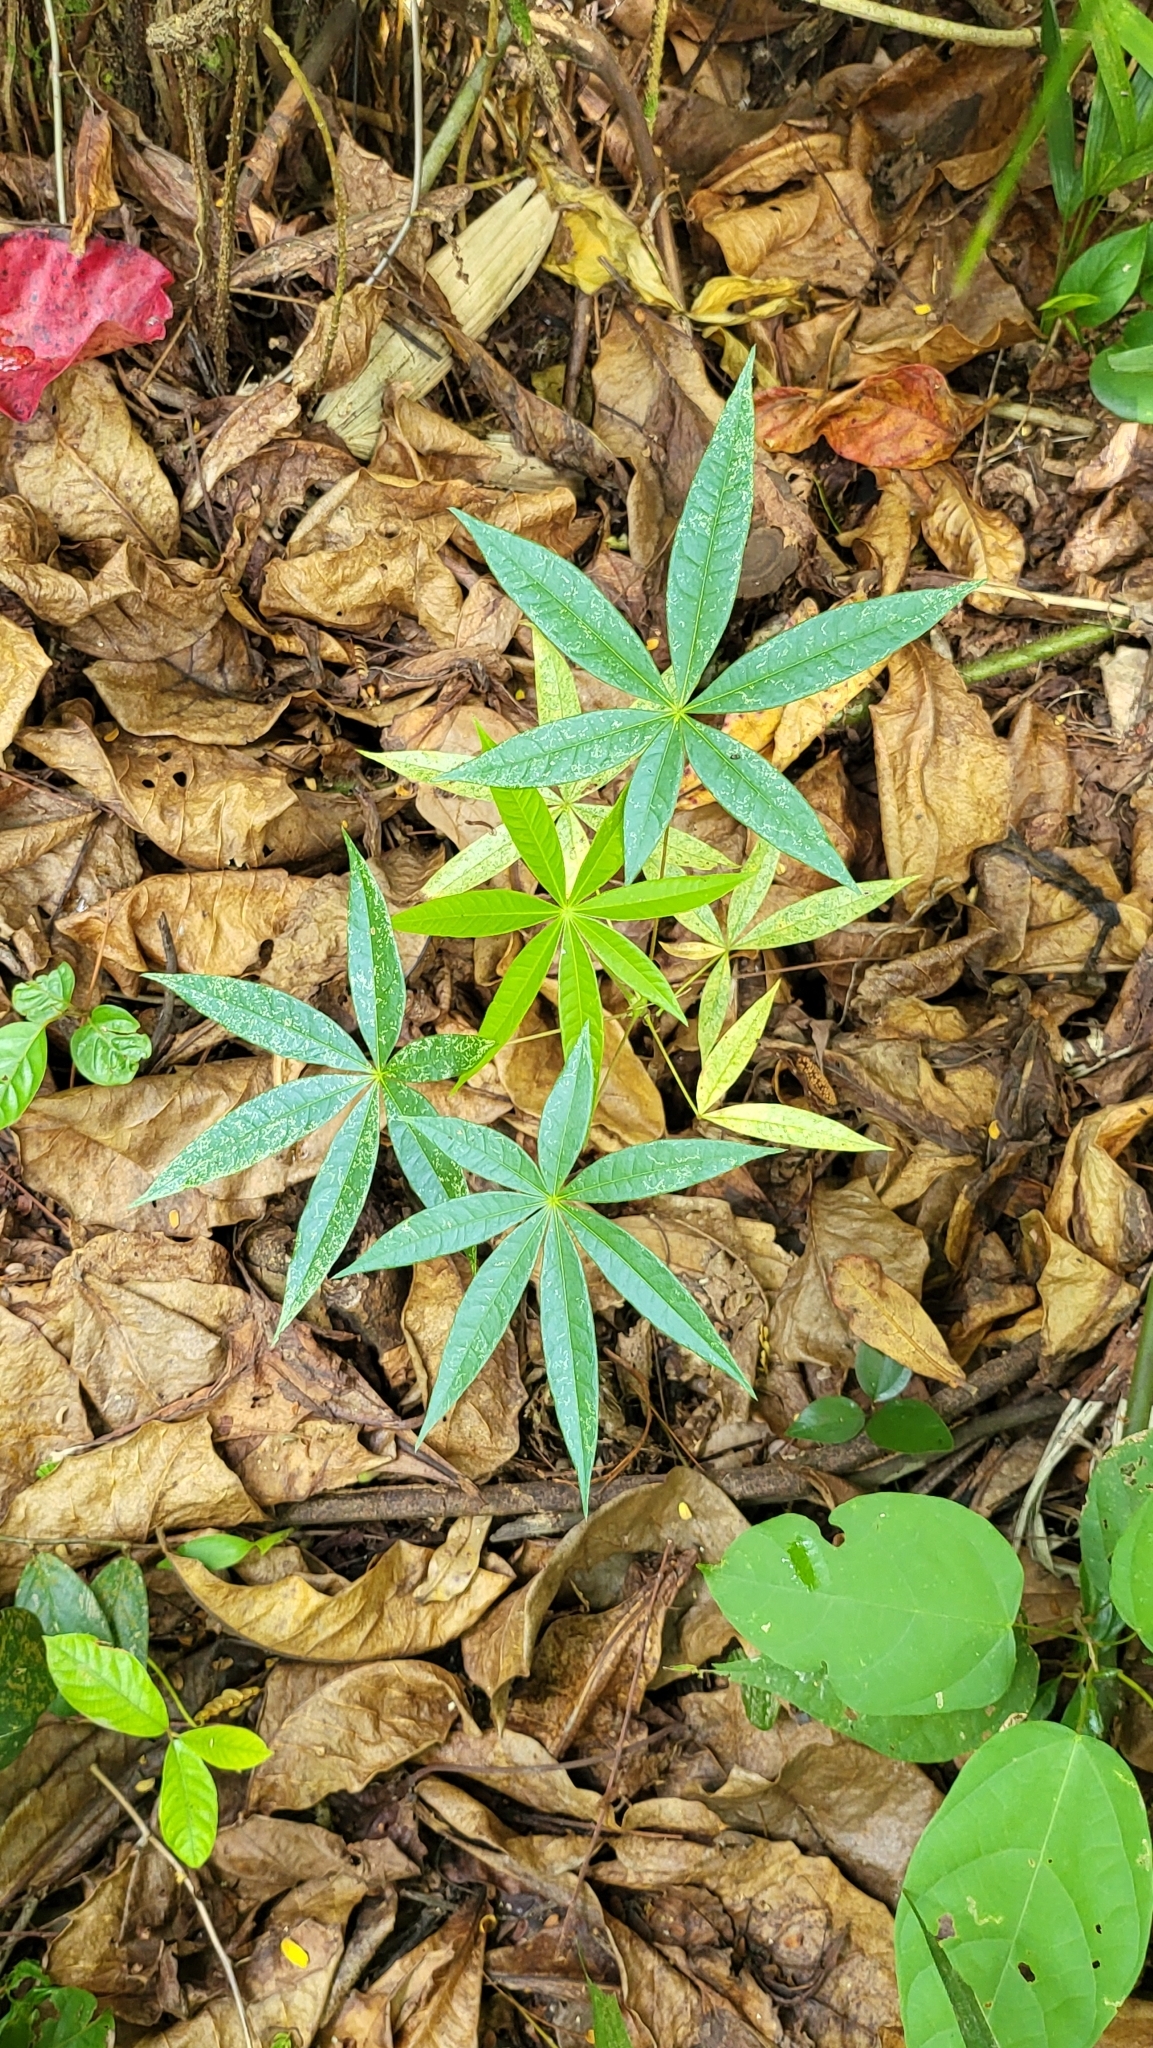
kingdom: Plantae
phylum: Tracheophyta
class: Magnoliopsida
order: Malvales
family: Malvaceae
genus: Sterculia
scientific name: Sterculia foetida
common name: Hazel sterculia
